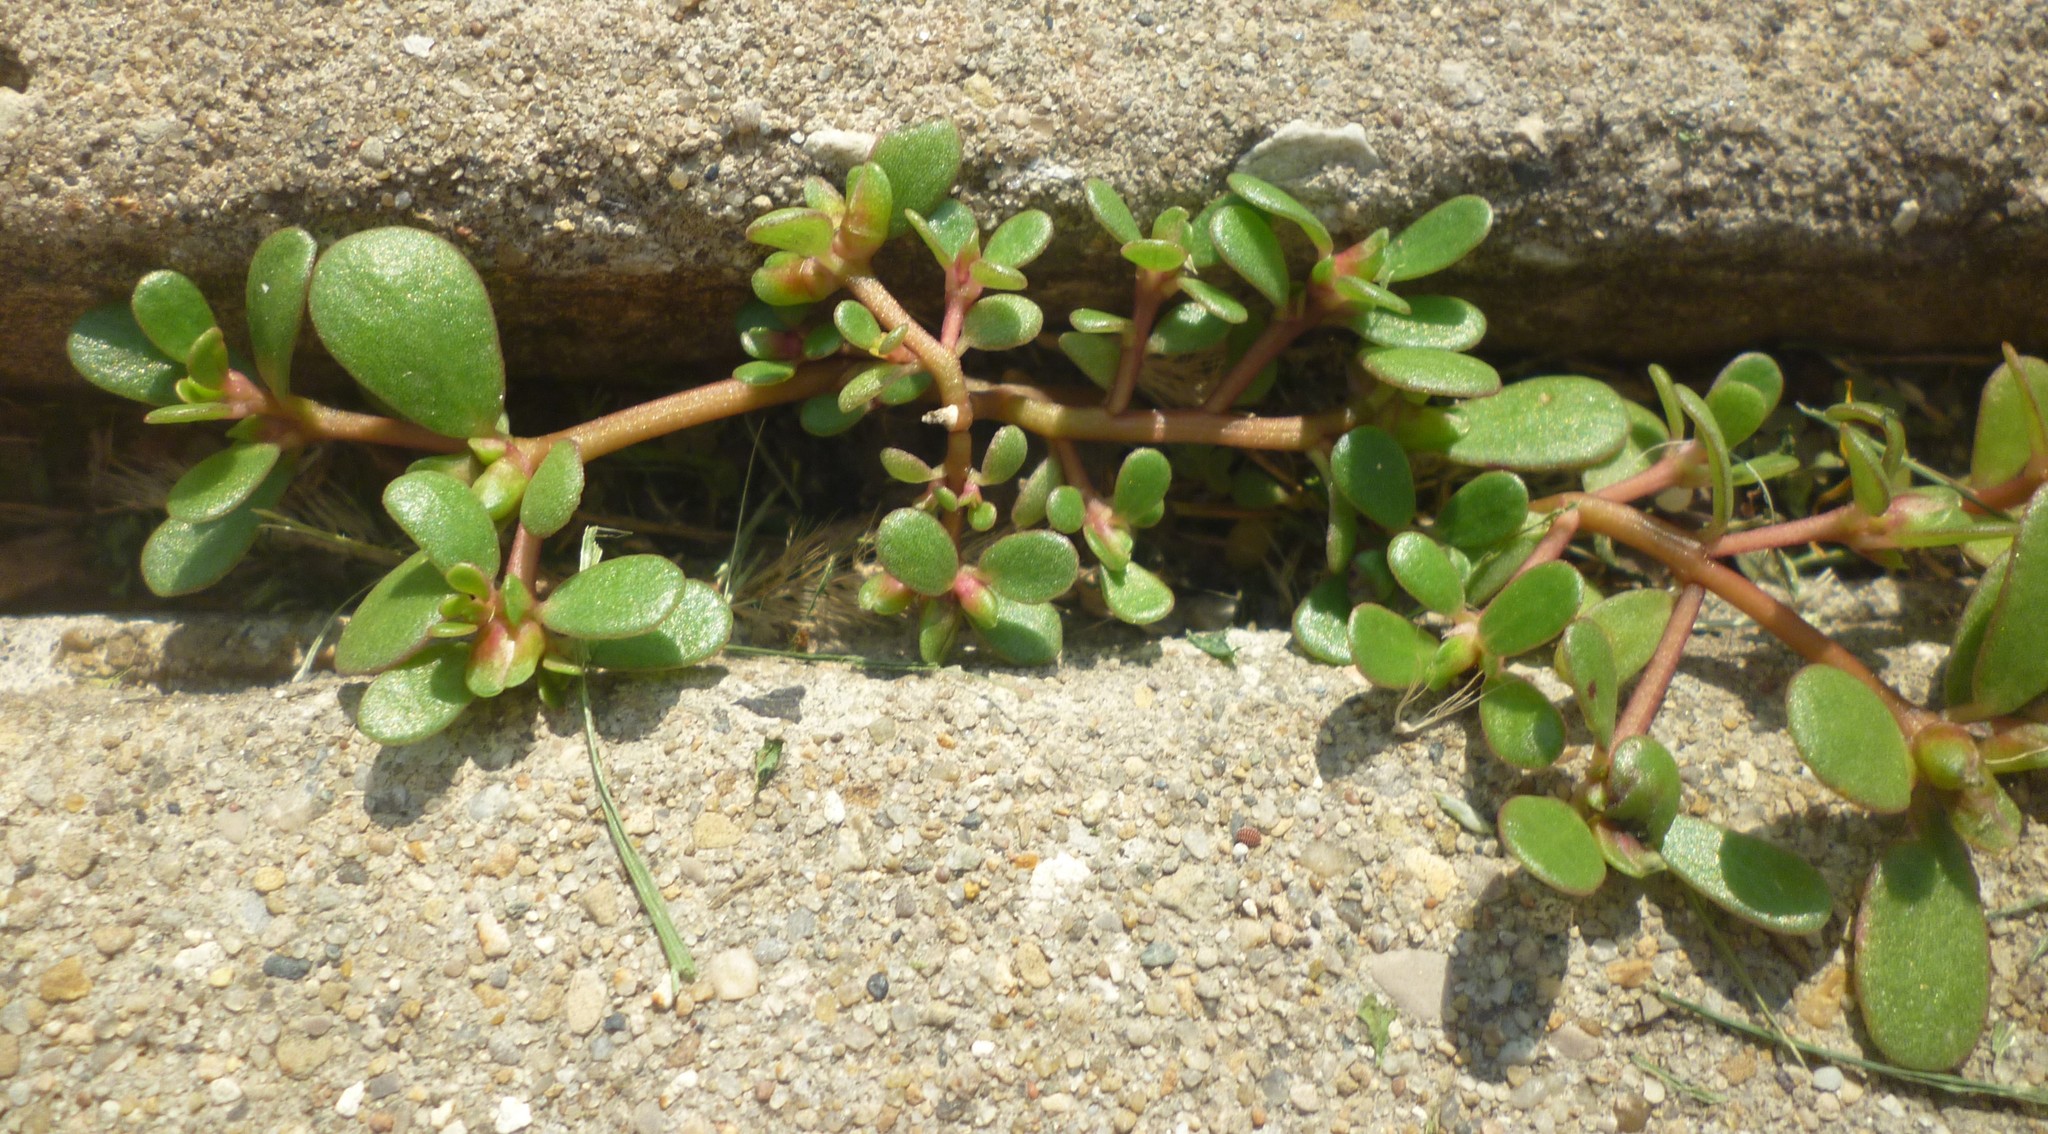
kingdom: Plantae
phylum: Tracheophyta
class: Magnoliopsida
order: Caryophyllales
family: Portulacaceae
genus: Portulaca
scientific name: Portulaca oleracea
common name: Common purslane
